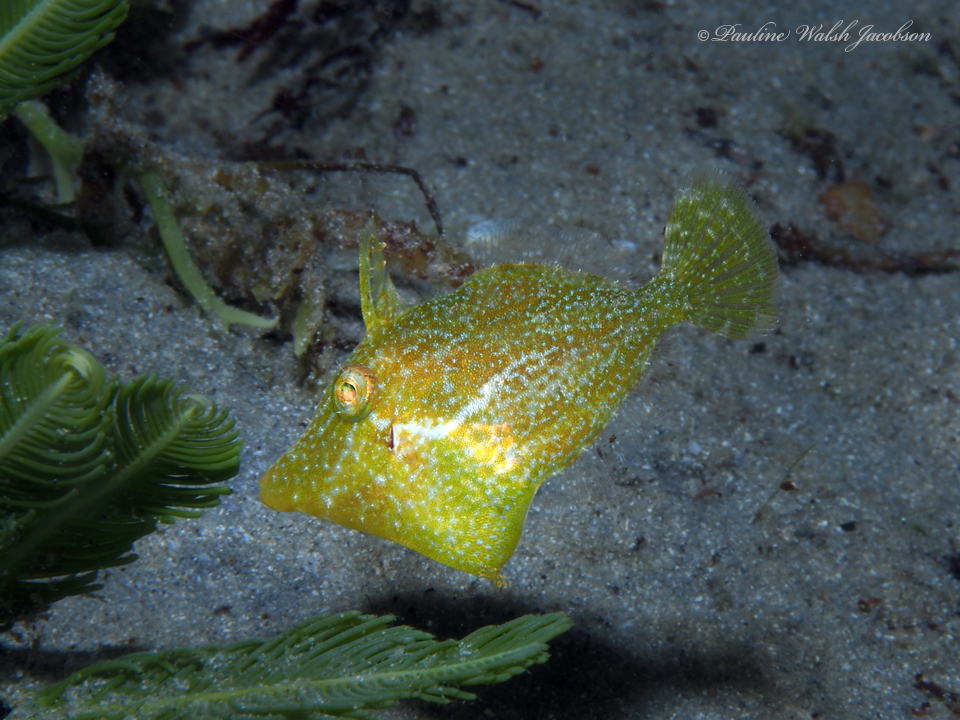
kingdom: Animalia
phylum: Chordata
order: Tetraodontiformes
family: Monacanthidae
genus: Monacanthus
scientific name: Monacanthus ciliatus
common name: Fringed filefish
